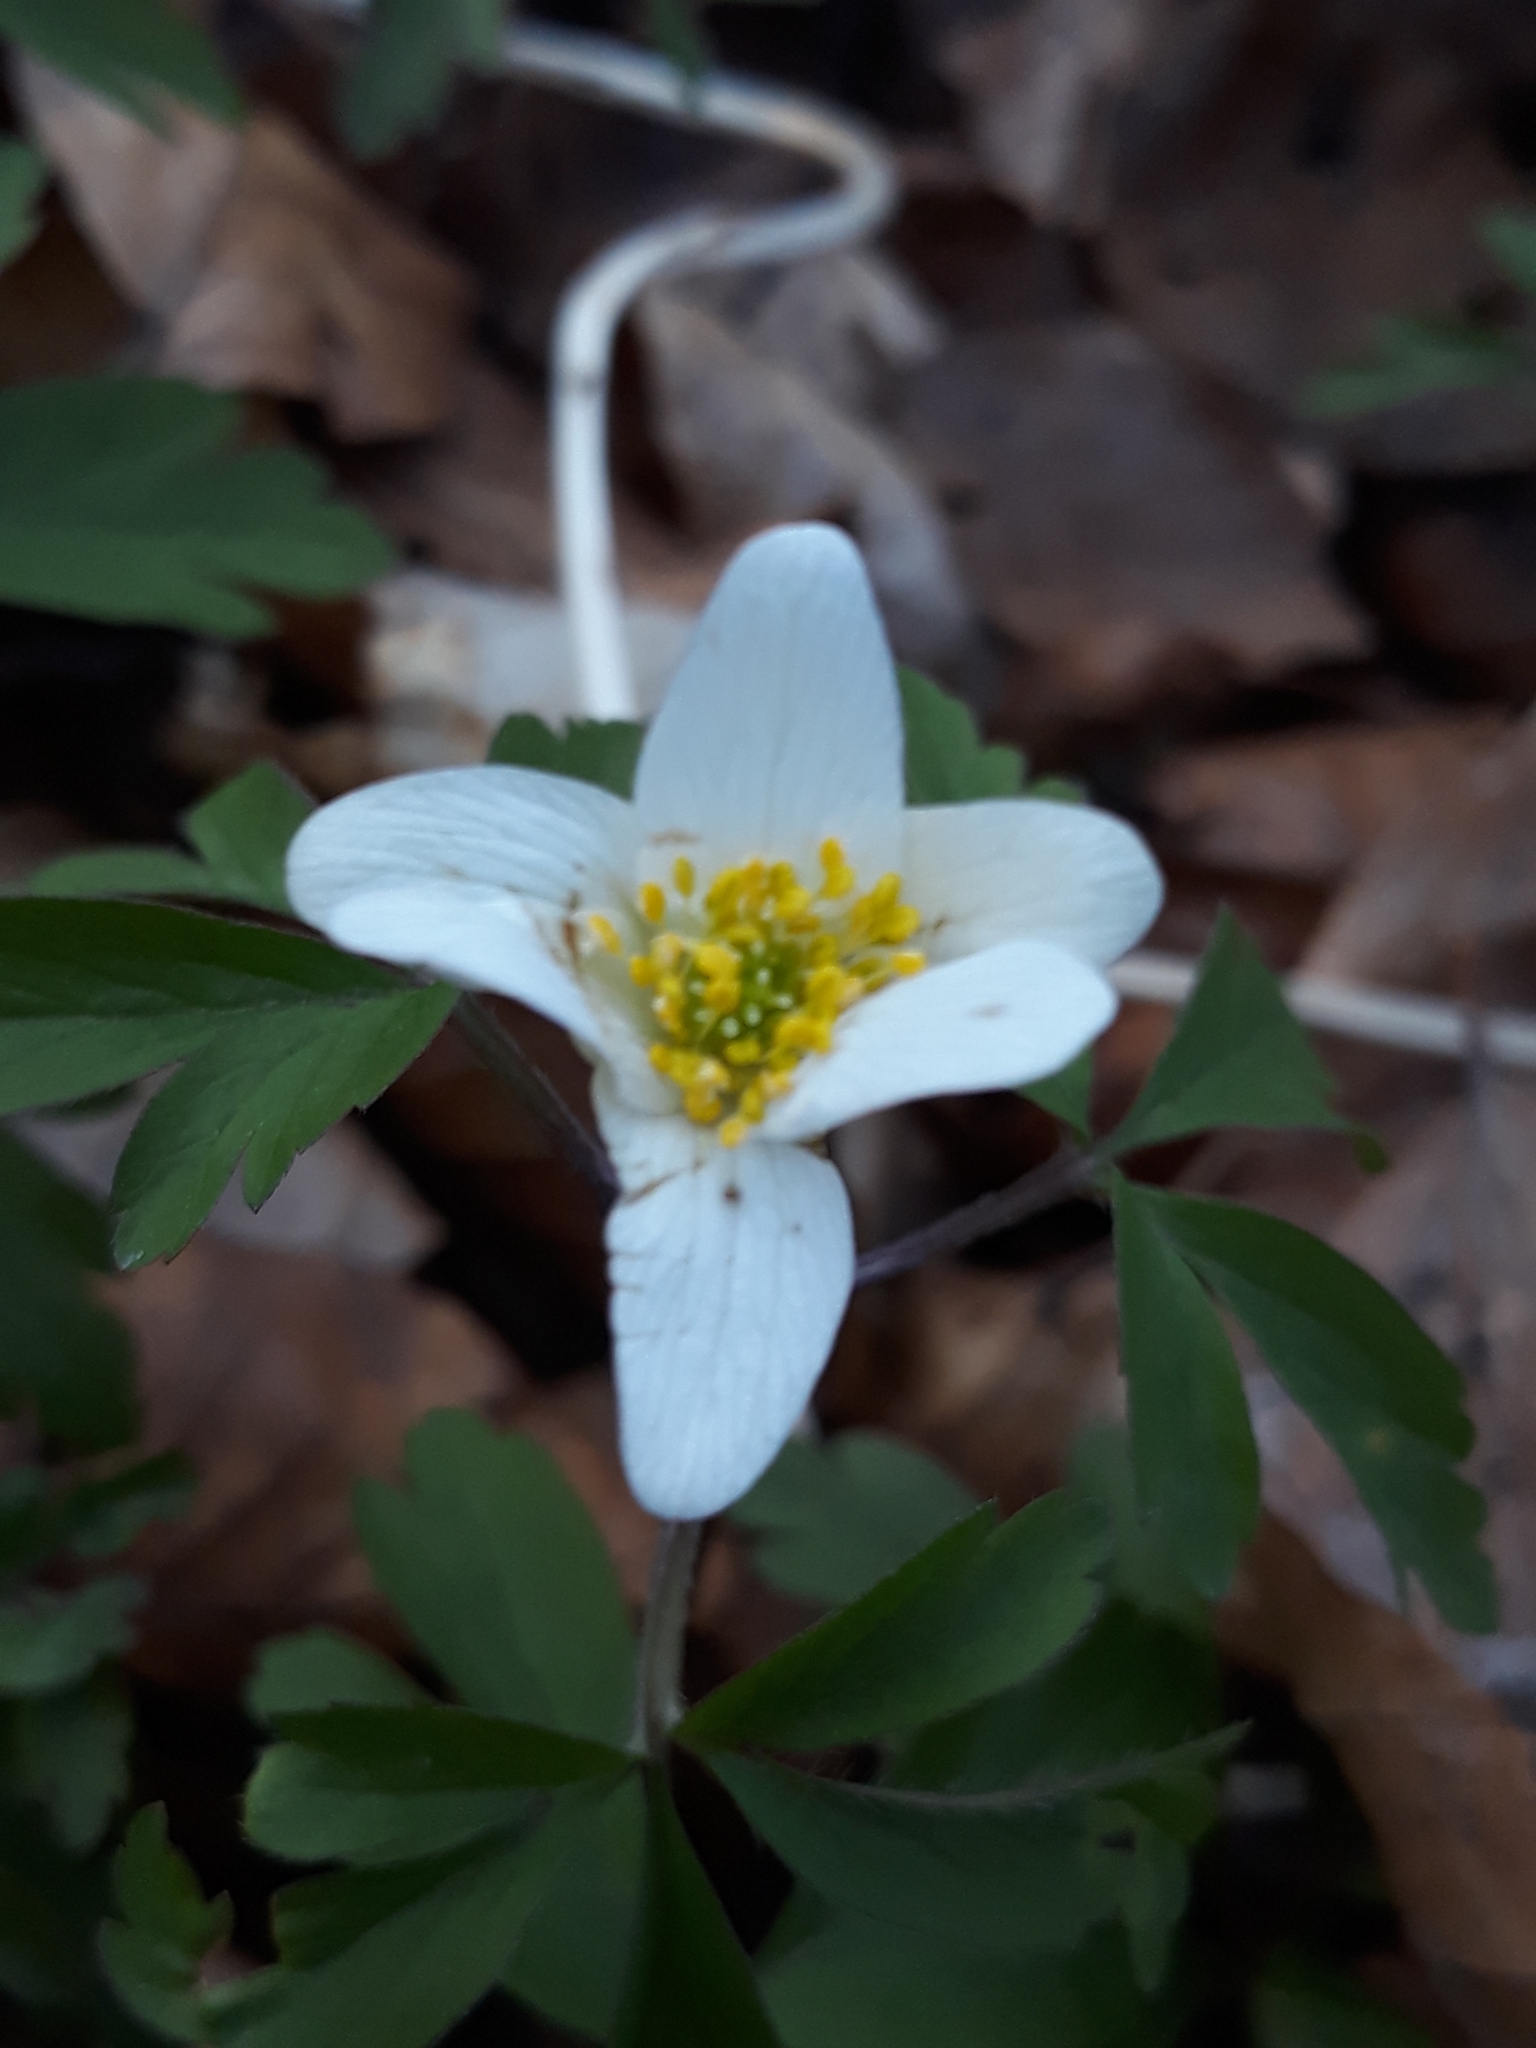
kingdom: Plantae
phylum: Tracheophyta
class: Magnoliopsida
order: Ranunculales
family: Ranunculaceae
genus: Anemone
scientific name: Anemone nemorosa
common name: Wood anemone
